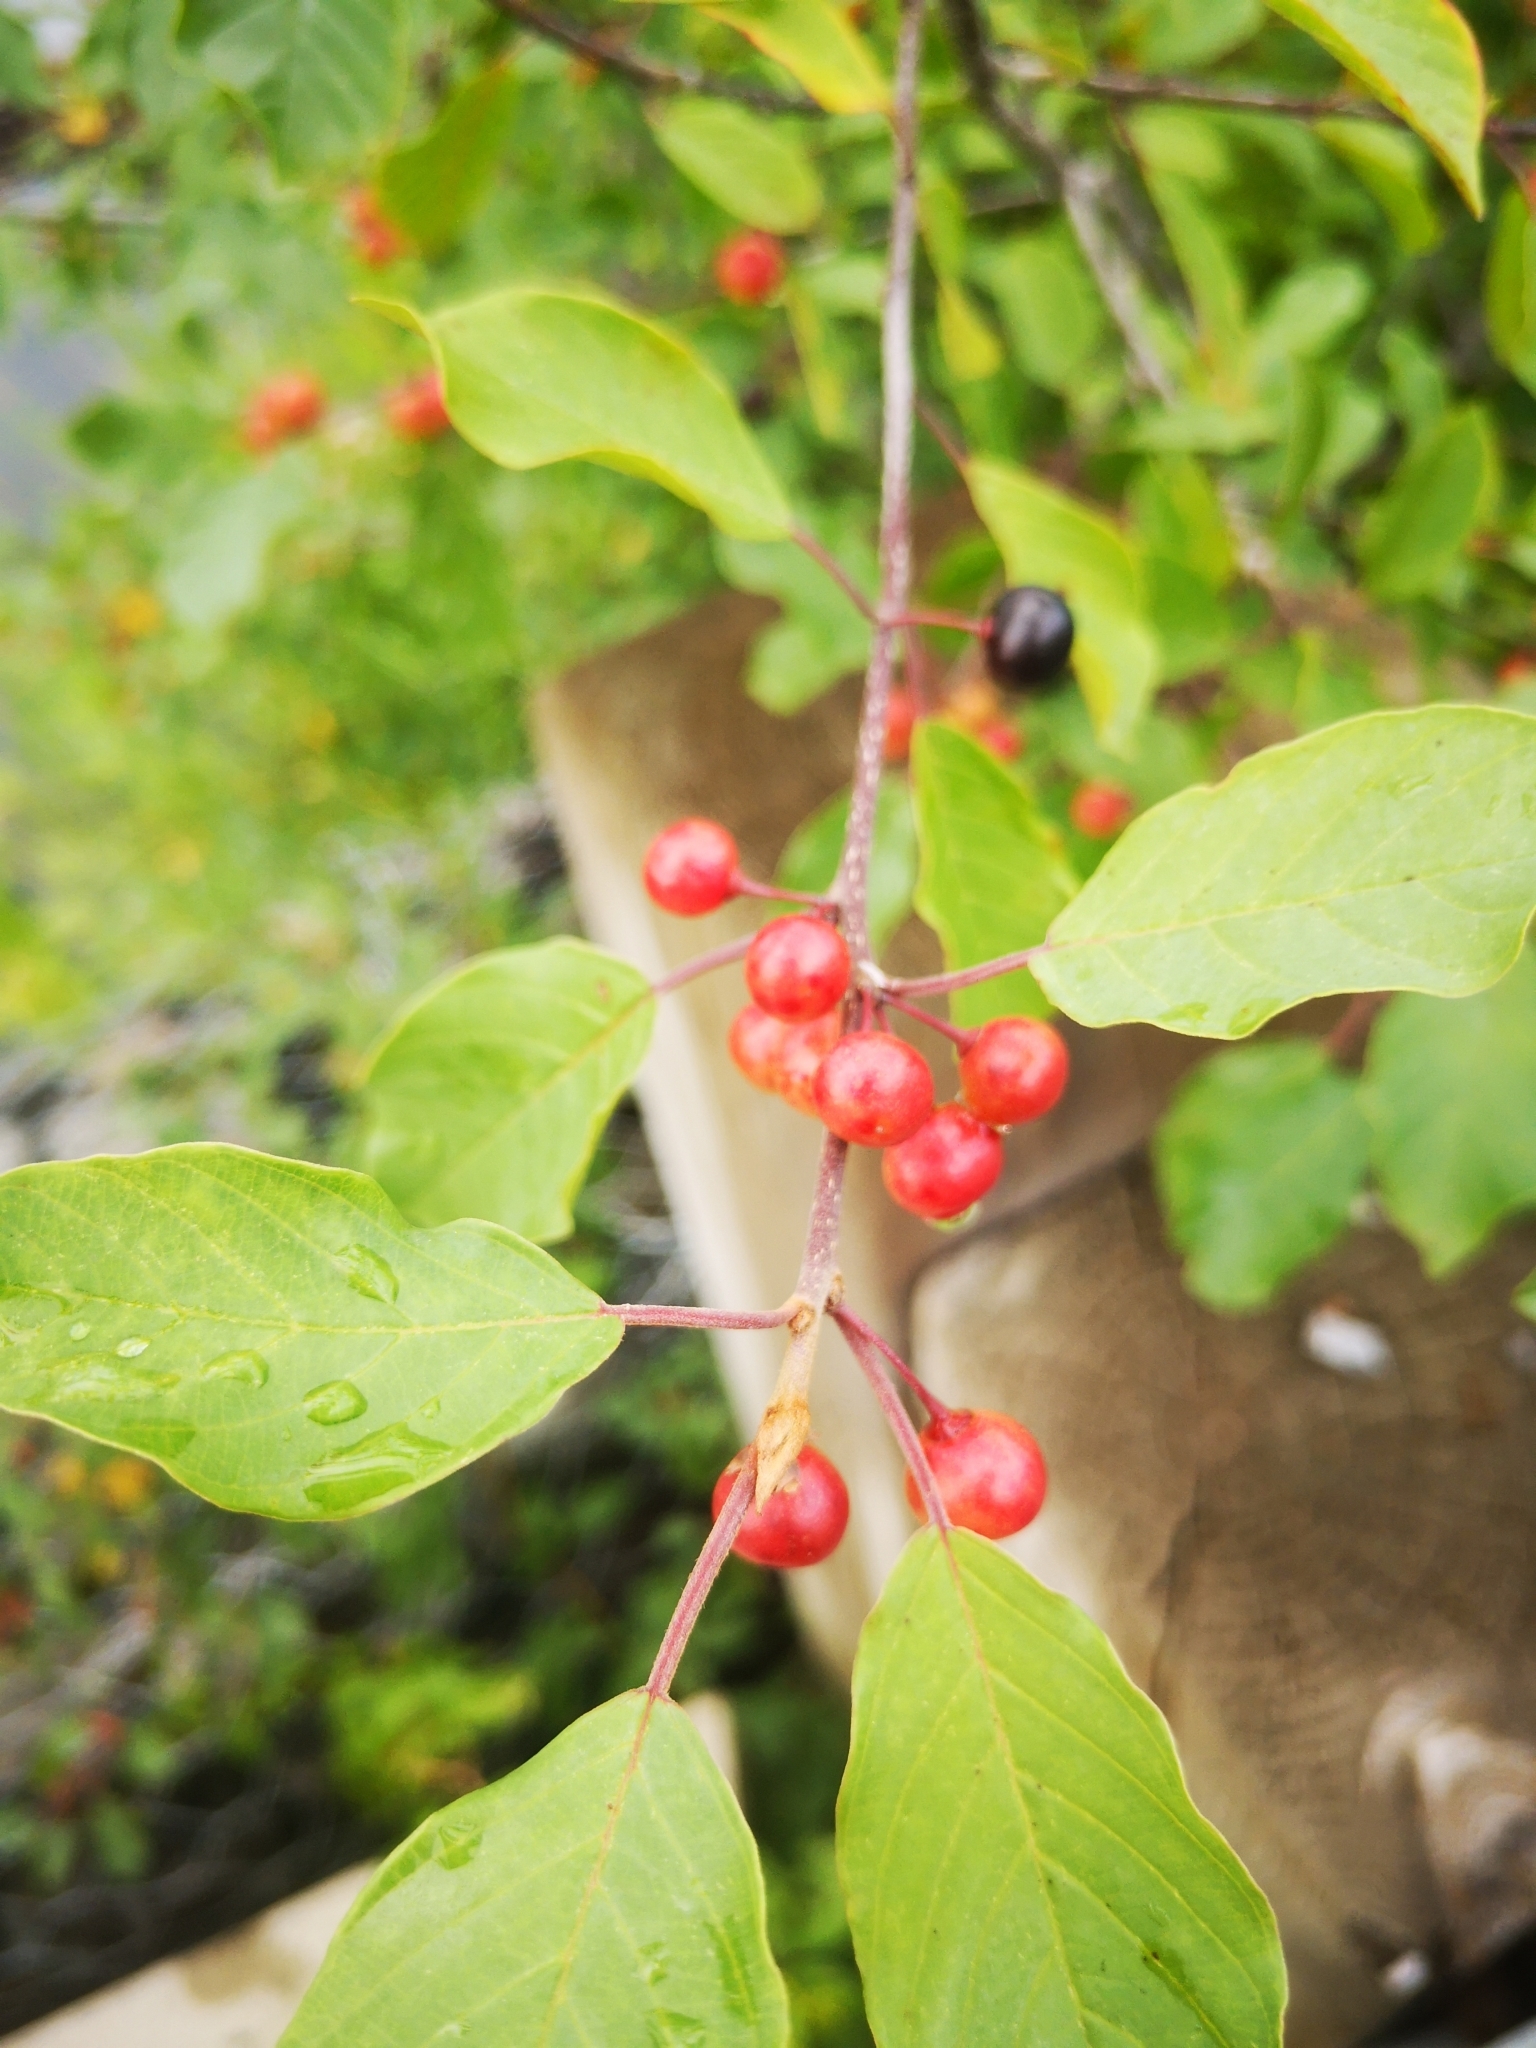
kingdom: Plantae
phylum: Tracheophyta
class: Magnoliopsida
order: Rosales
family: Rhamnaceae
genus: Frangula
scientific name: Frangula alnus
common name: Alder buckthorn
